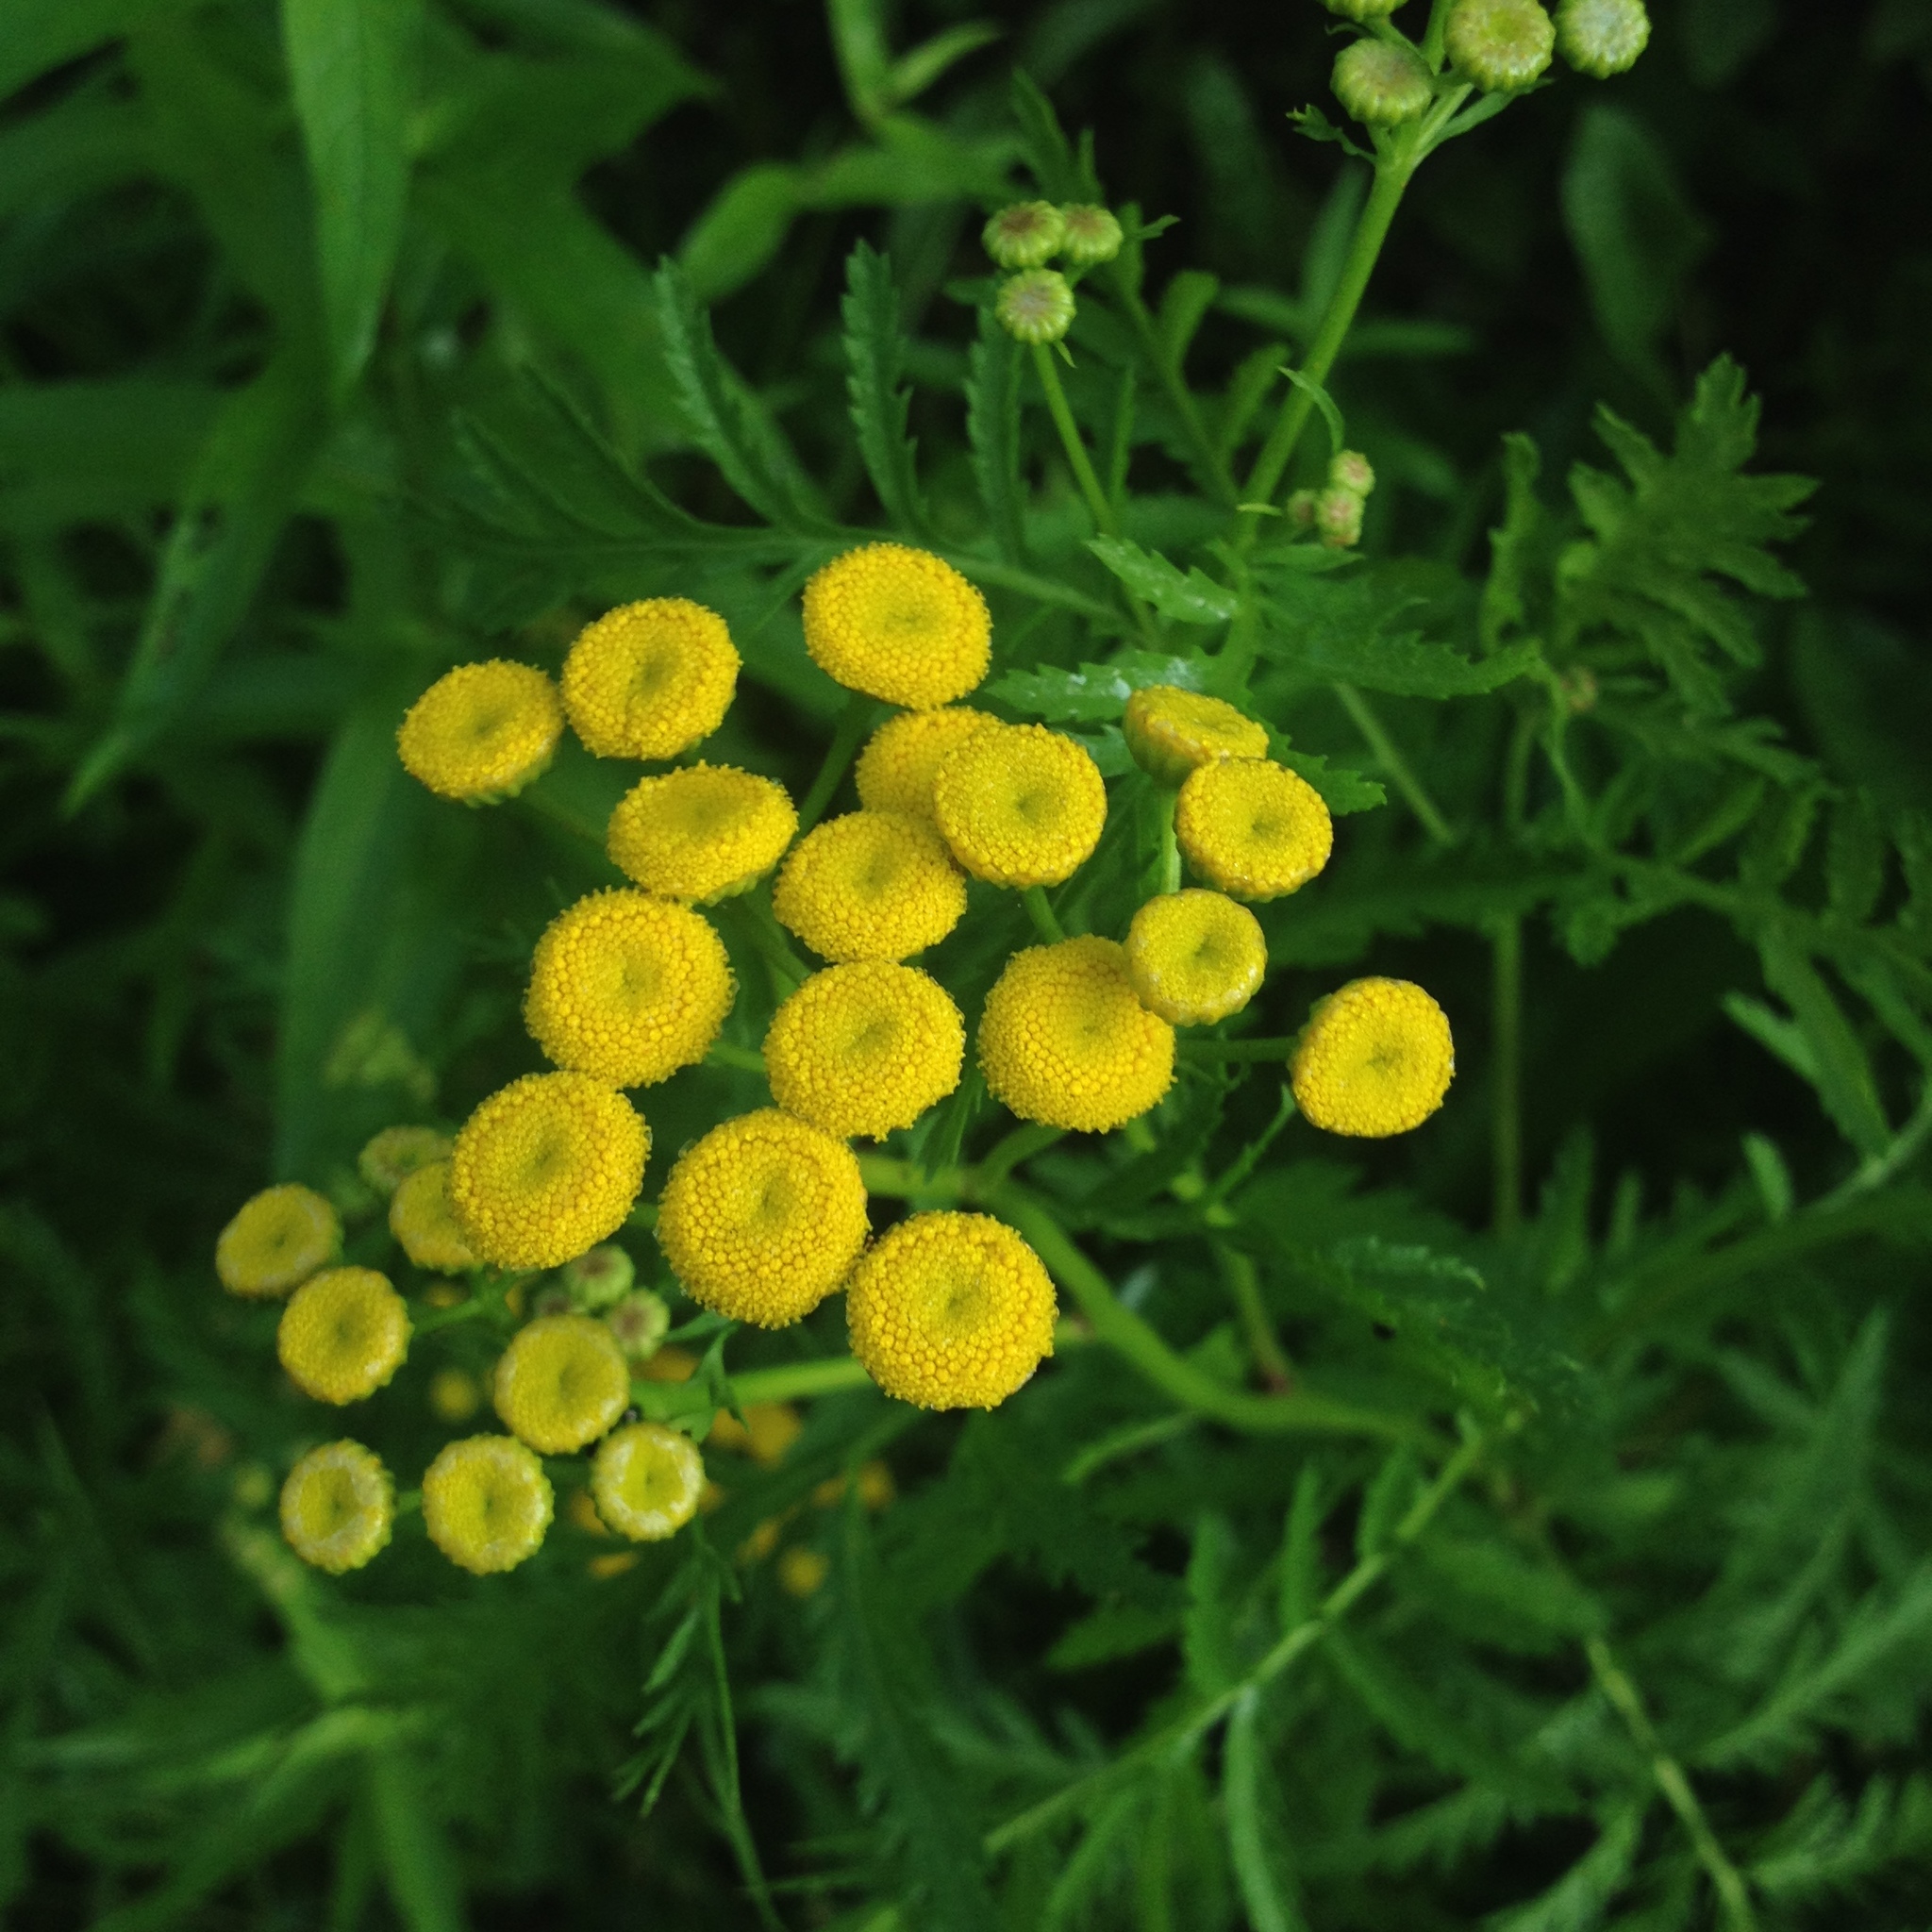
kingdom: Plantae
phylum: Tracheophyta
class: Magnoliopsida
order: Asterales
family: Asteraceae
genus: Tanacetum
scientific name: Tanacetum vulgare
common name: Common tansy
